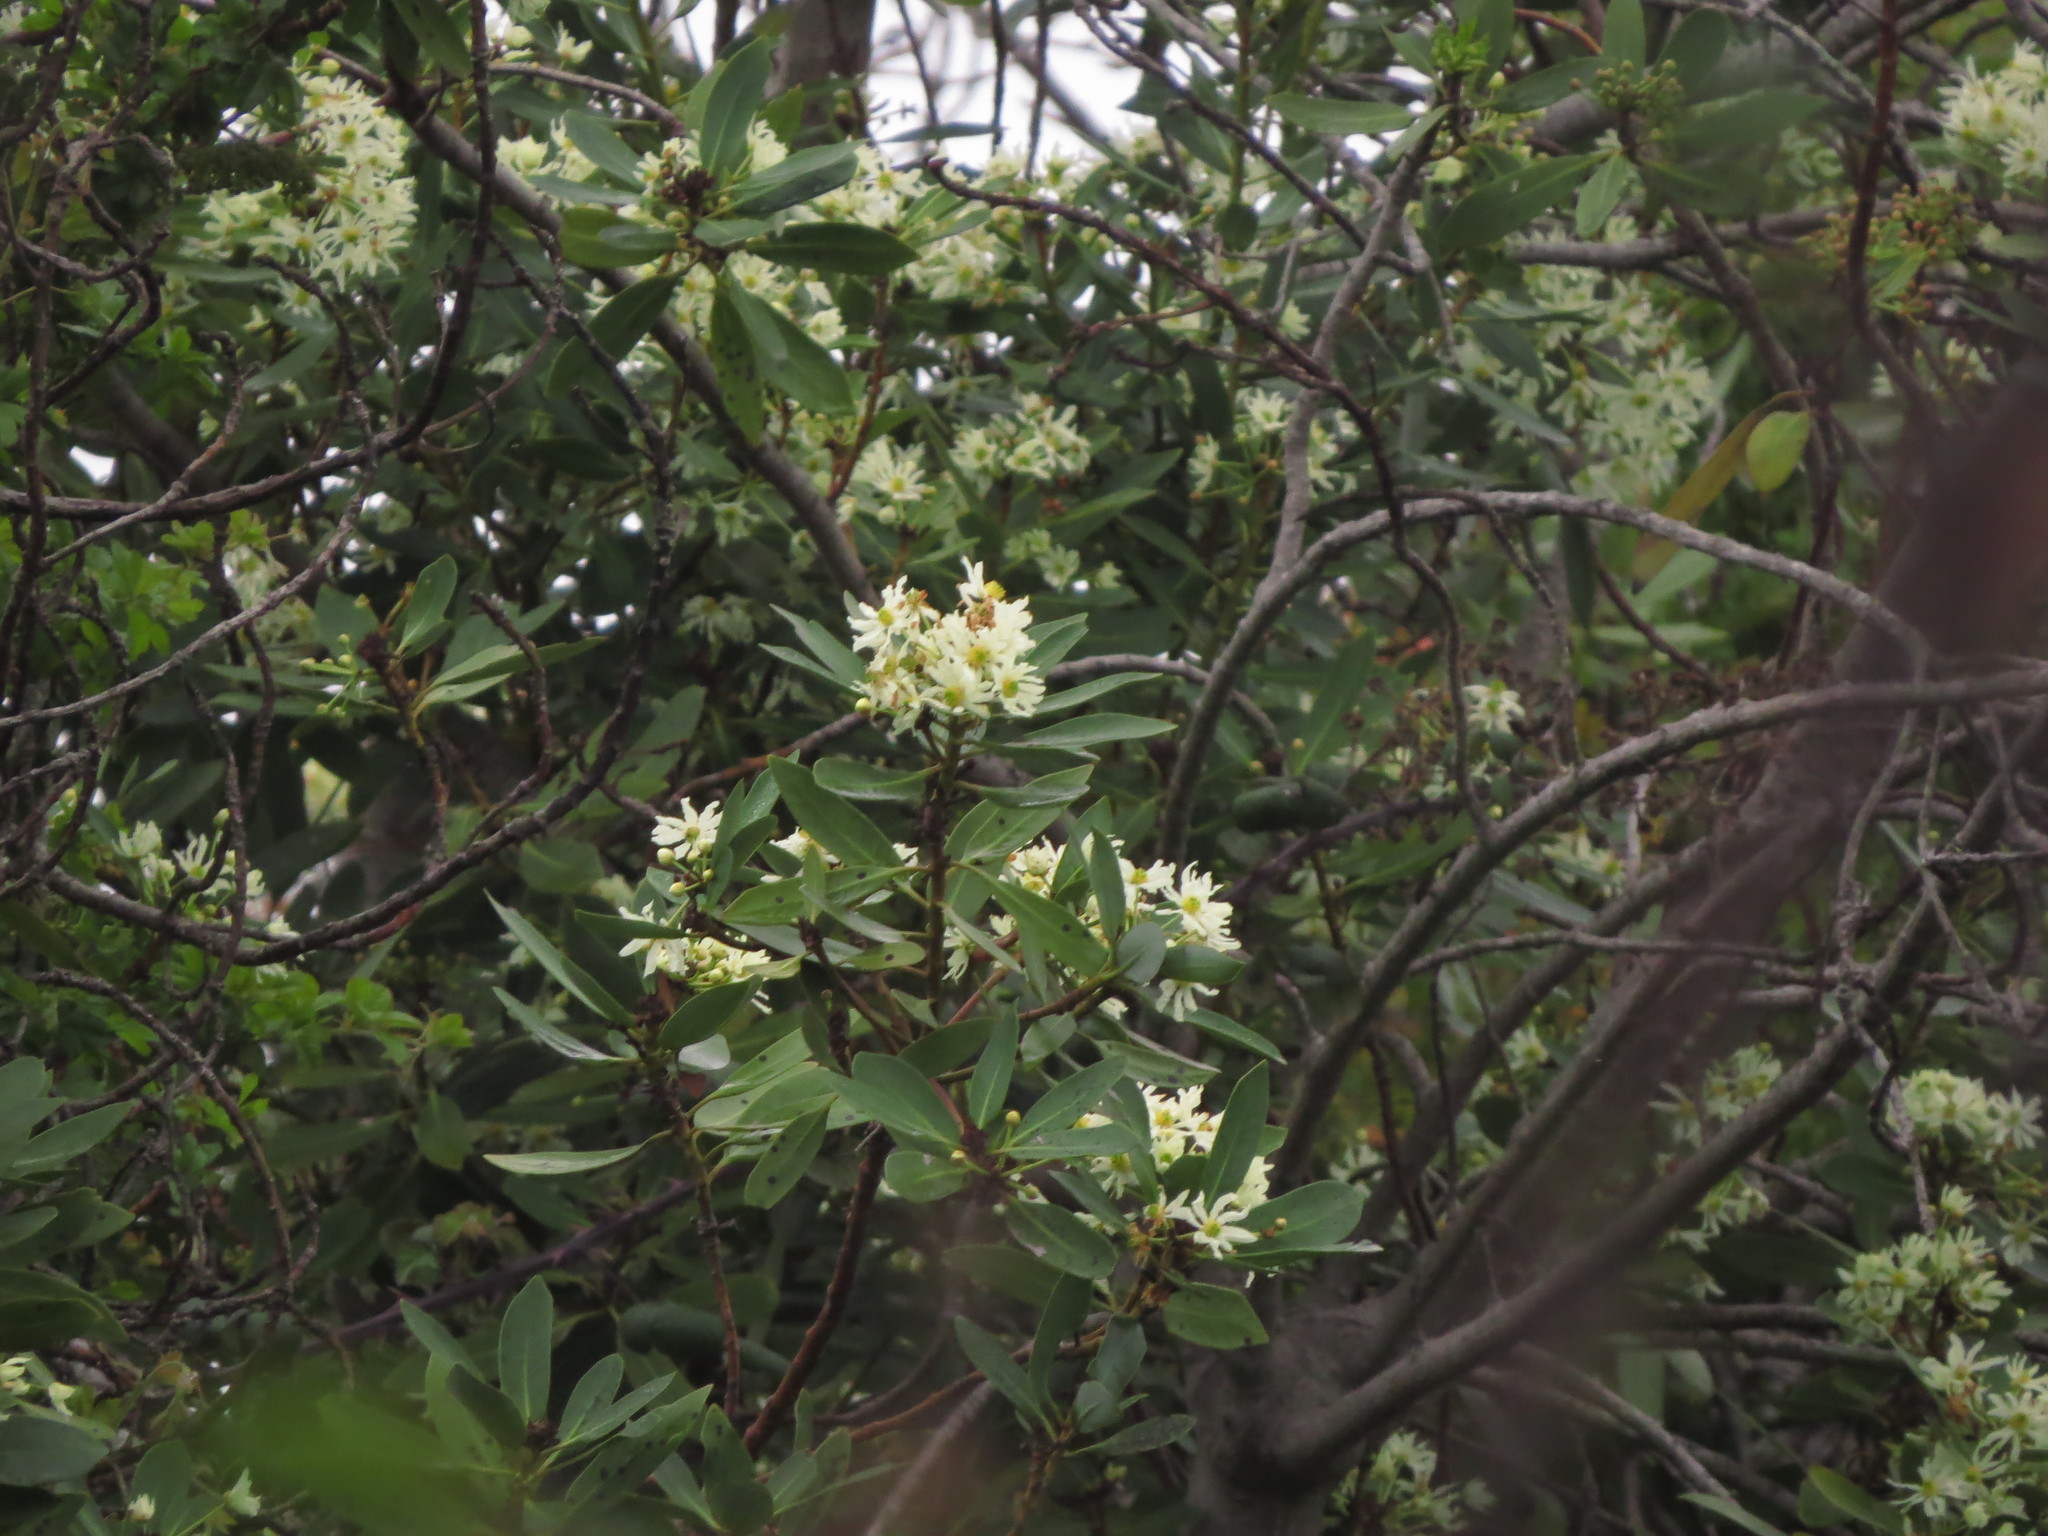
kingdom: Plantae
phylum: Tracheophyta
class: Magnoliopsida
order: Canellales
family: Winteraceae
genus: Drimys
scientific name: Drimys winteri
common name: Winter's-bark
